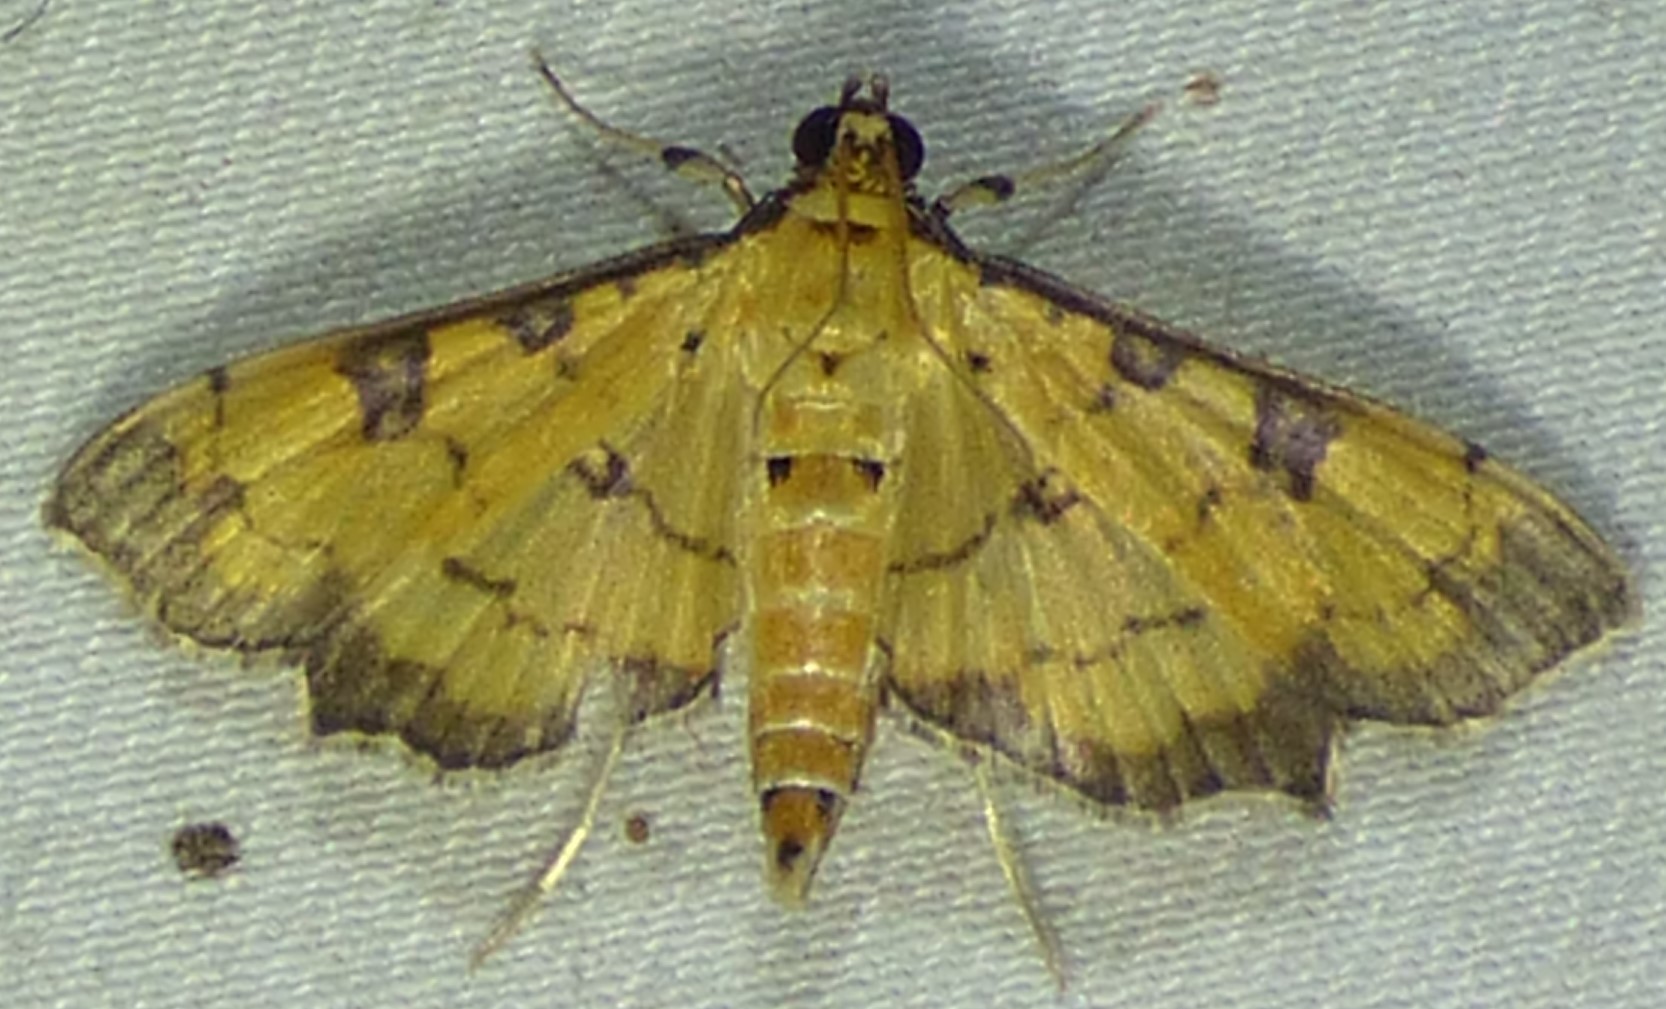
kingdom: Animalia
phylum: Arthropoda
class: Insecta
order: Lepidoptera
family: Crambidae
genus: Ategumia
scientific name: Ategumia ebulealis
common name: Moth
